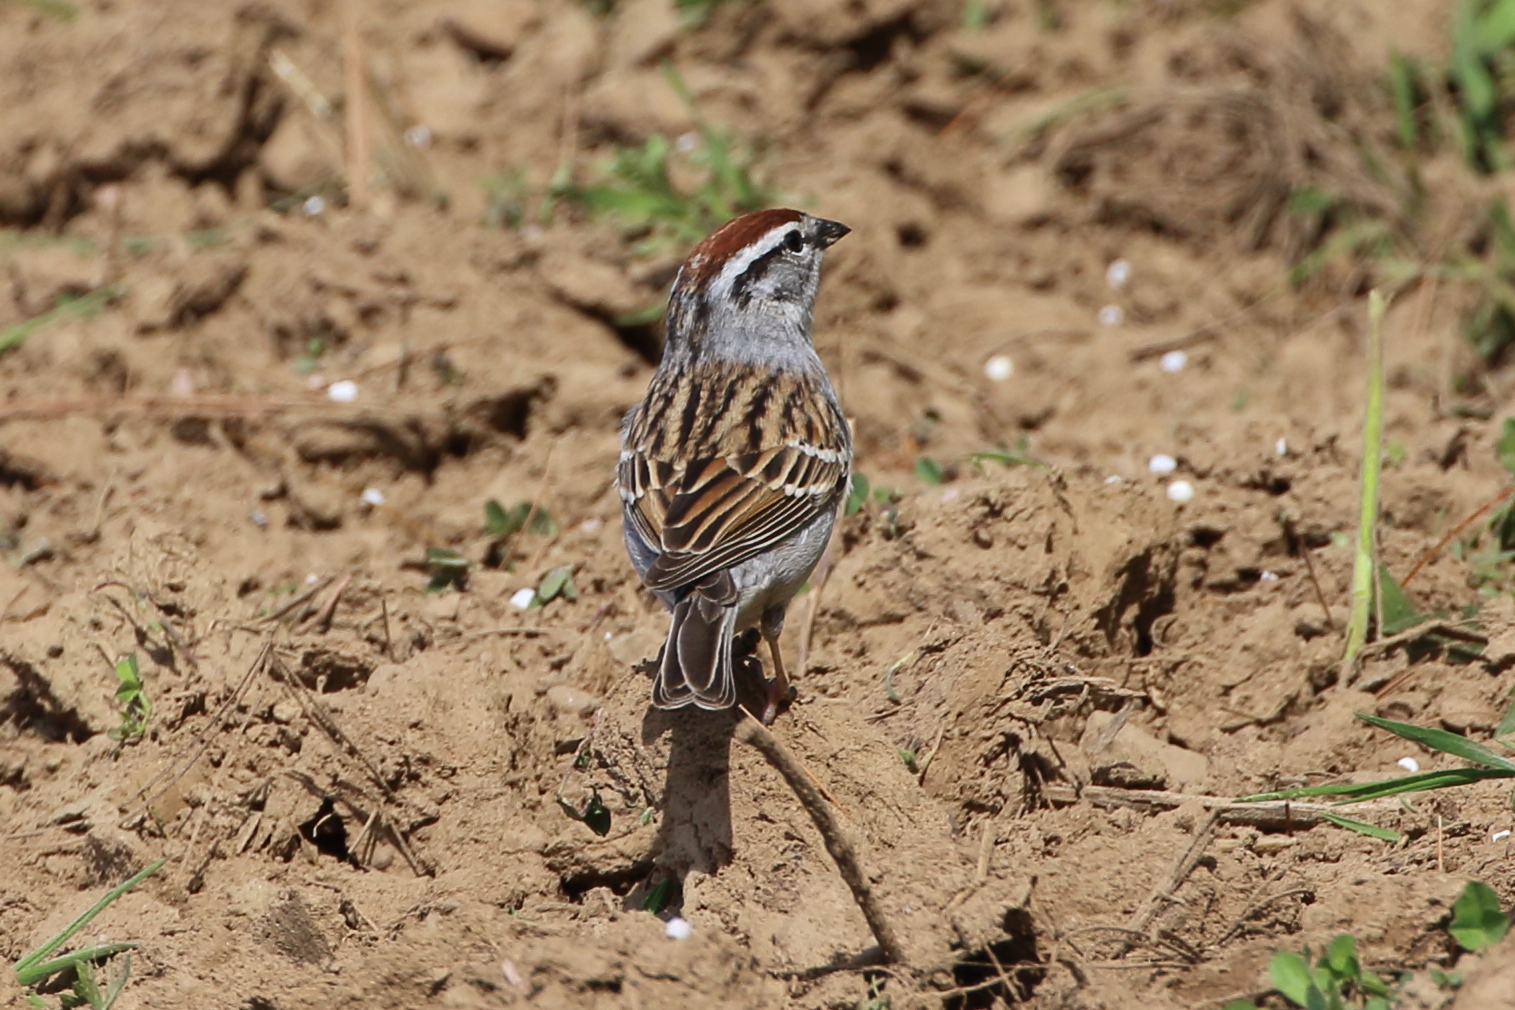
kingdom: Animalia
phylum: Chordata
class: Aves
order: Passeriformes
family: Passerellidae
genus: Spizella
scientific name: Spizella passerina
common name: Chipping sparrow
